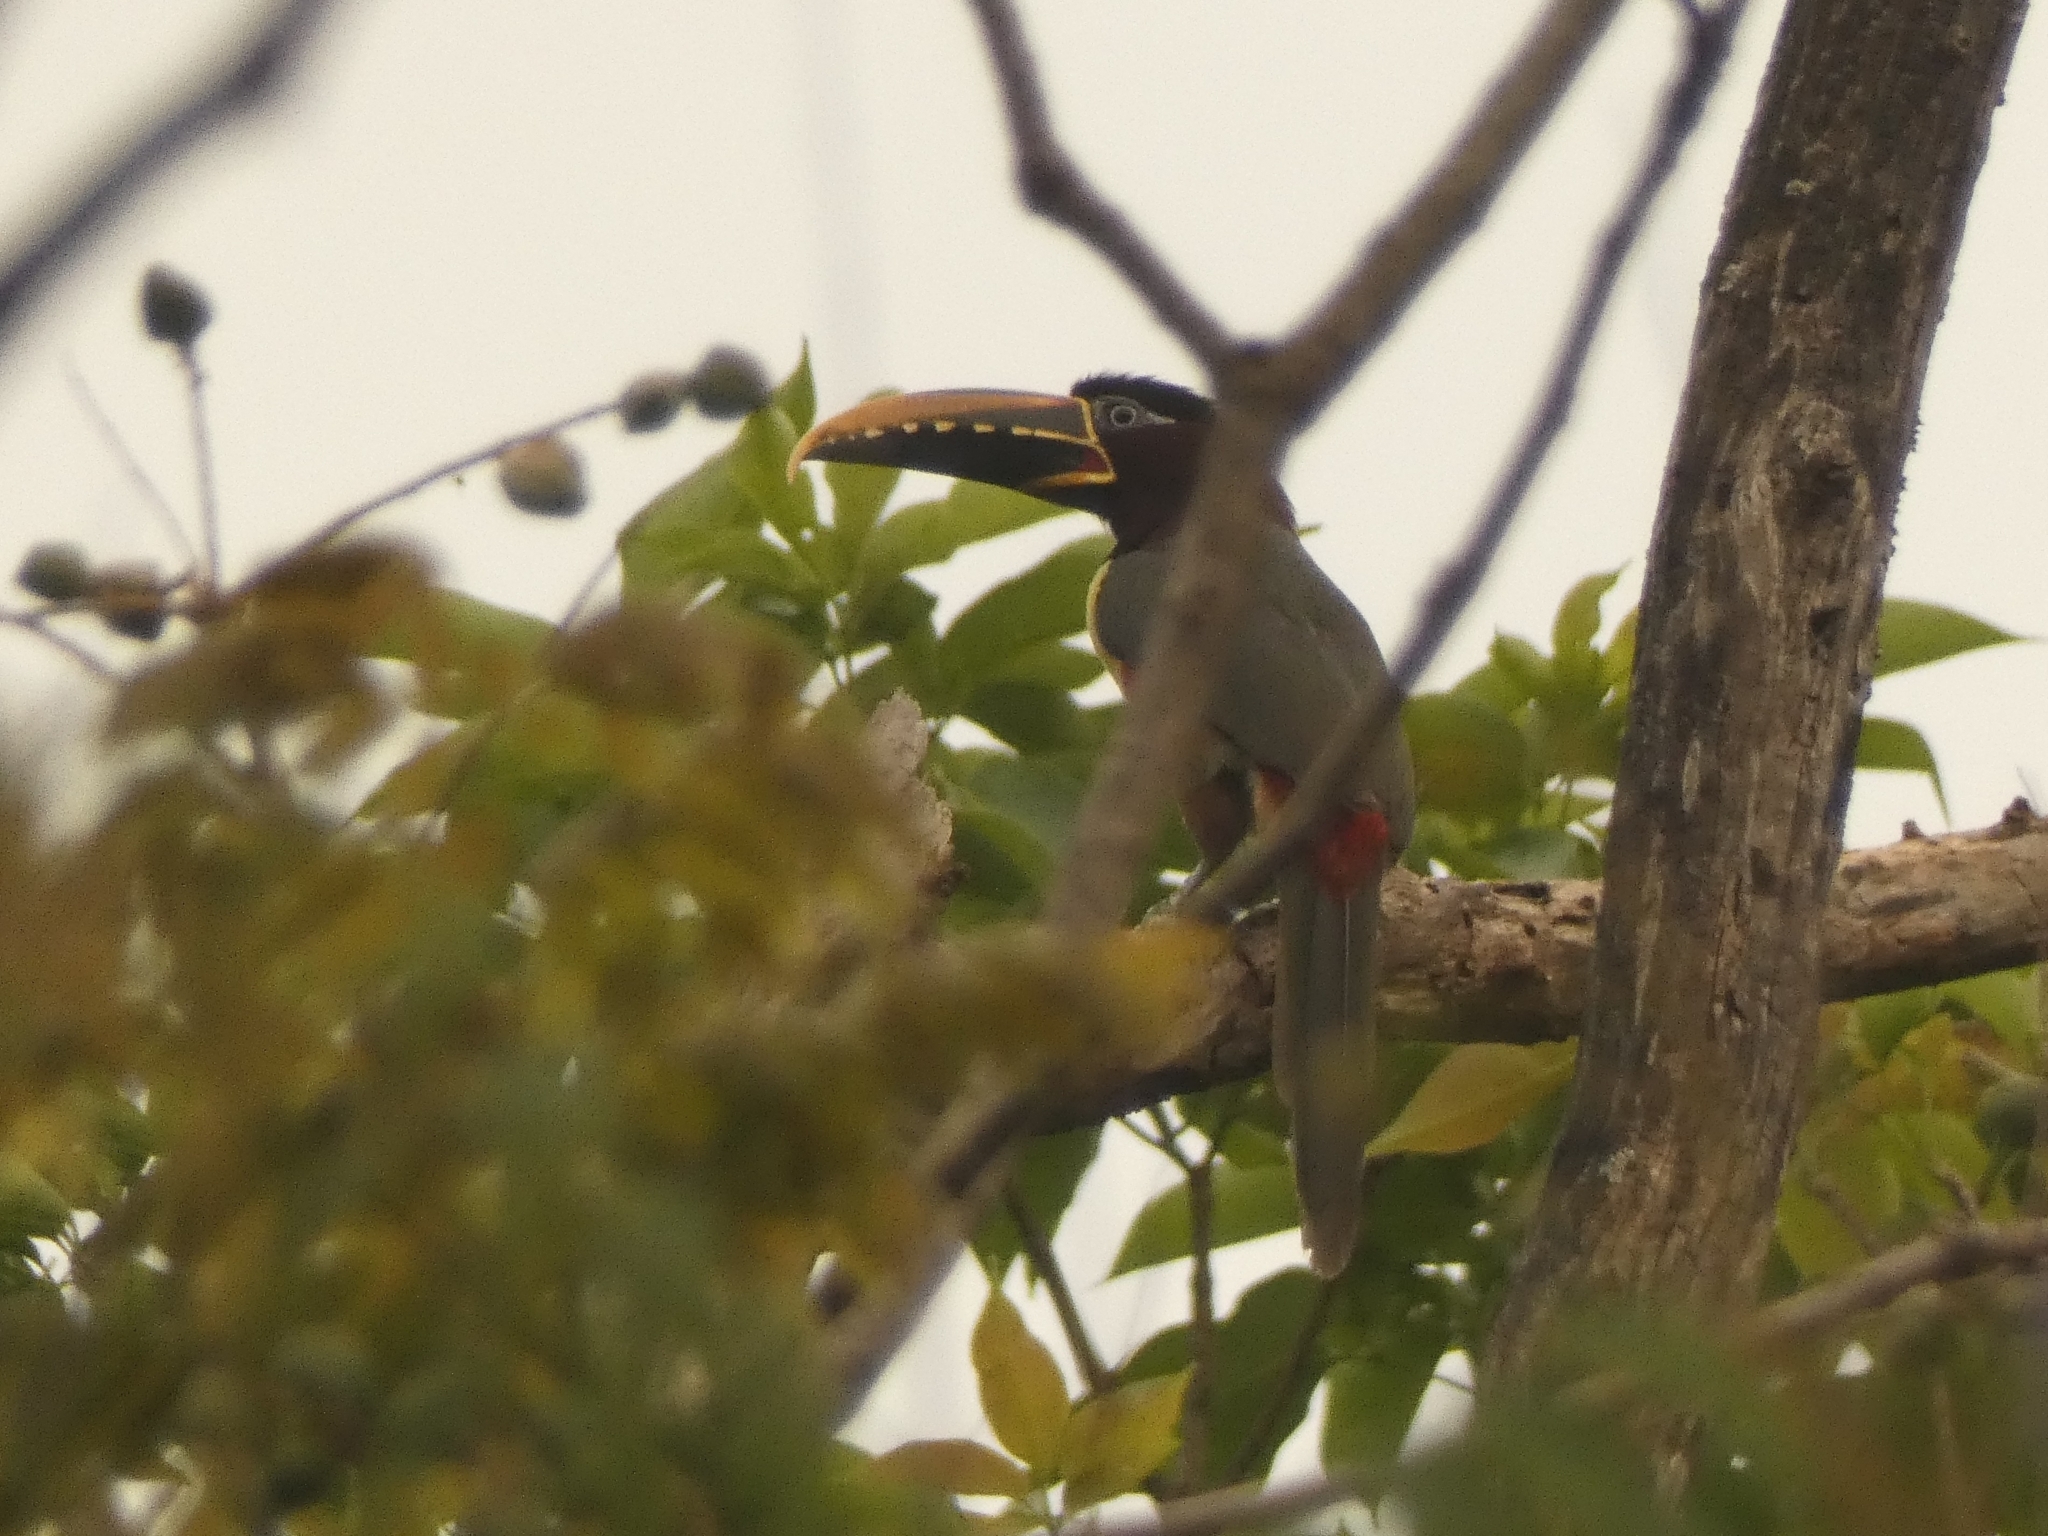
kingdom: Animalia
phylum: Chordata
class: Aves
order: Piciformes
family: Ramphastidae
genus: Pteroglossus
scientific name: Pteroglossus castanotis
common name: Chestnut-eared aracari
